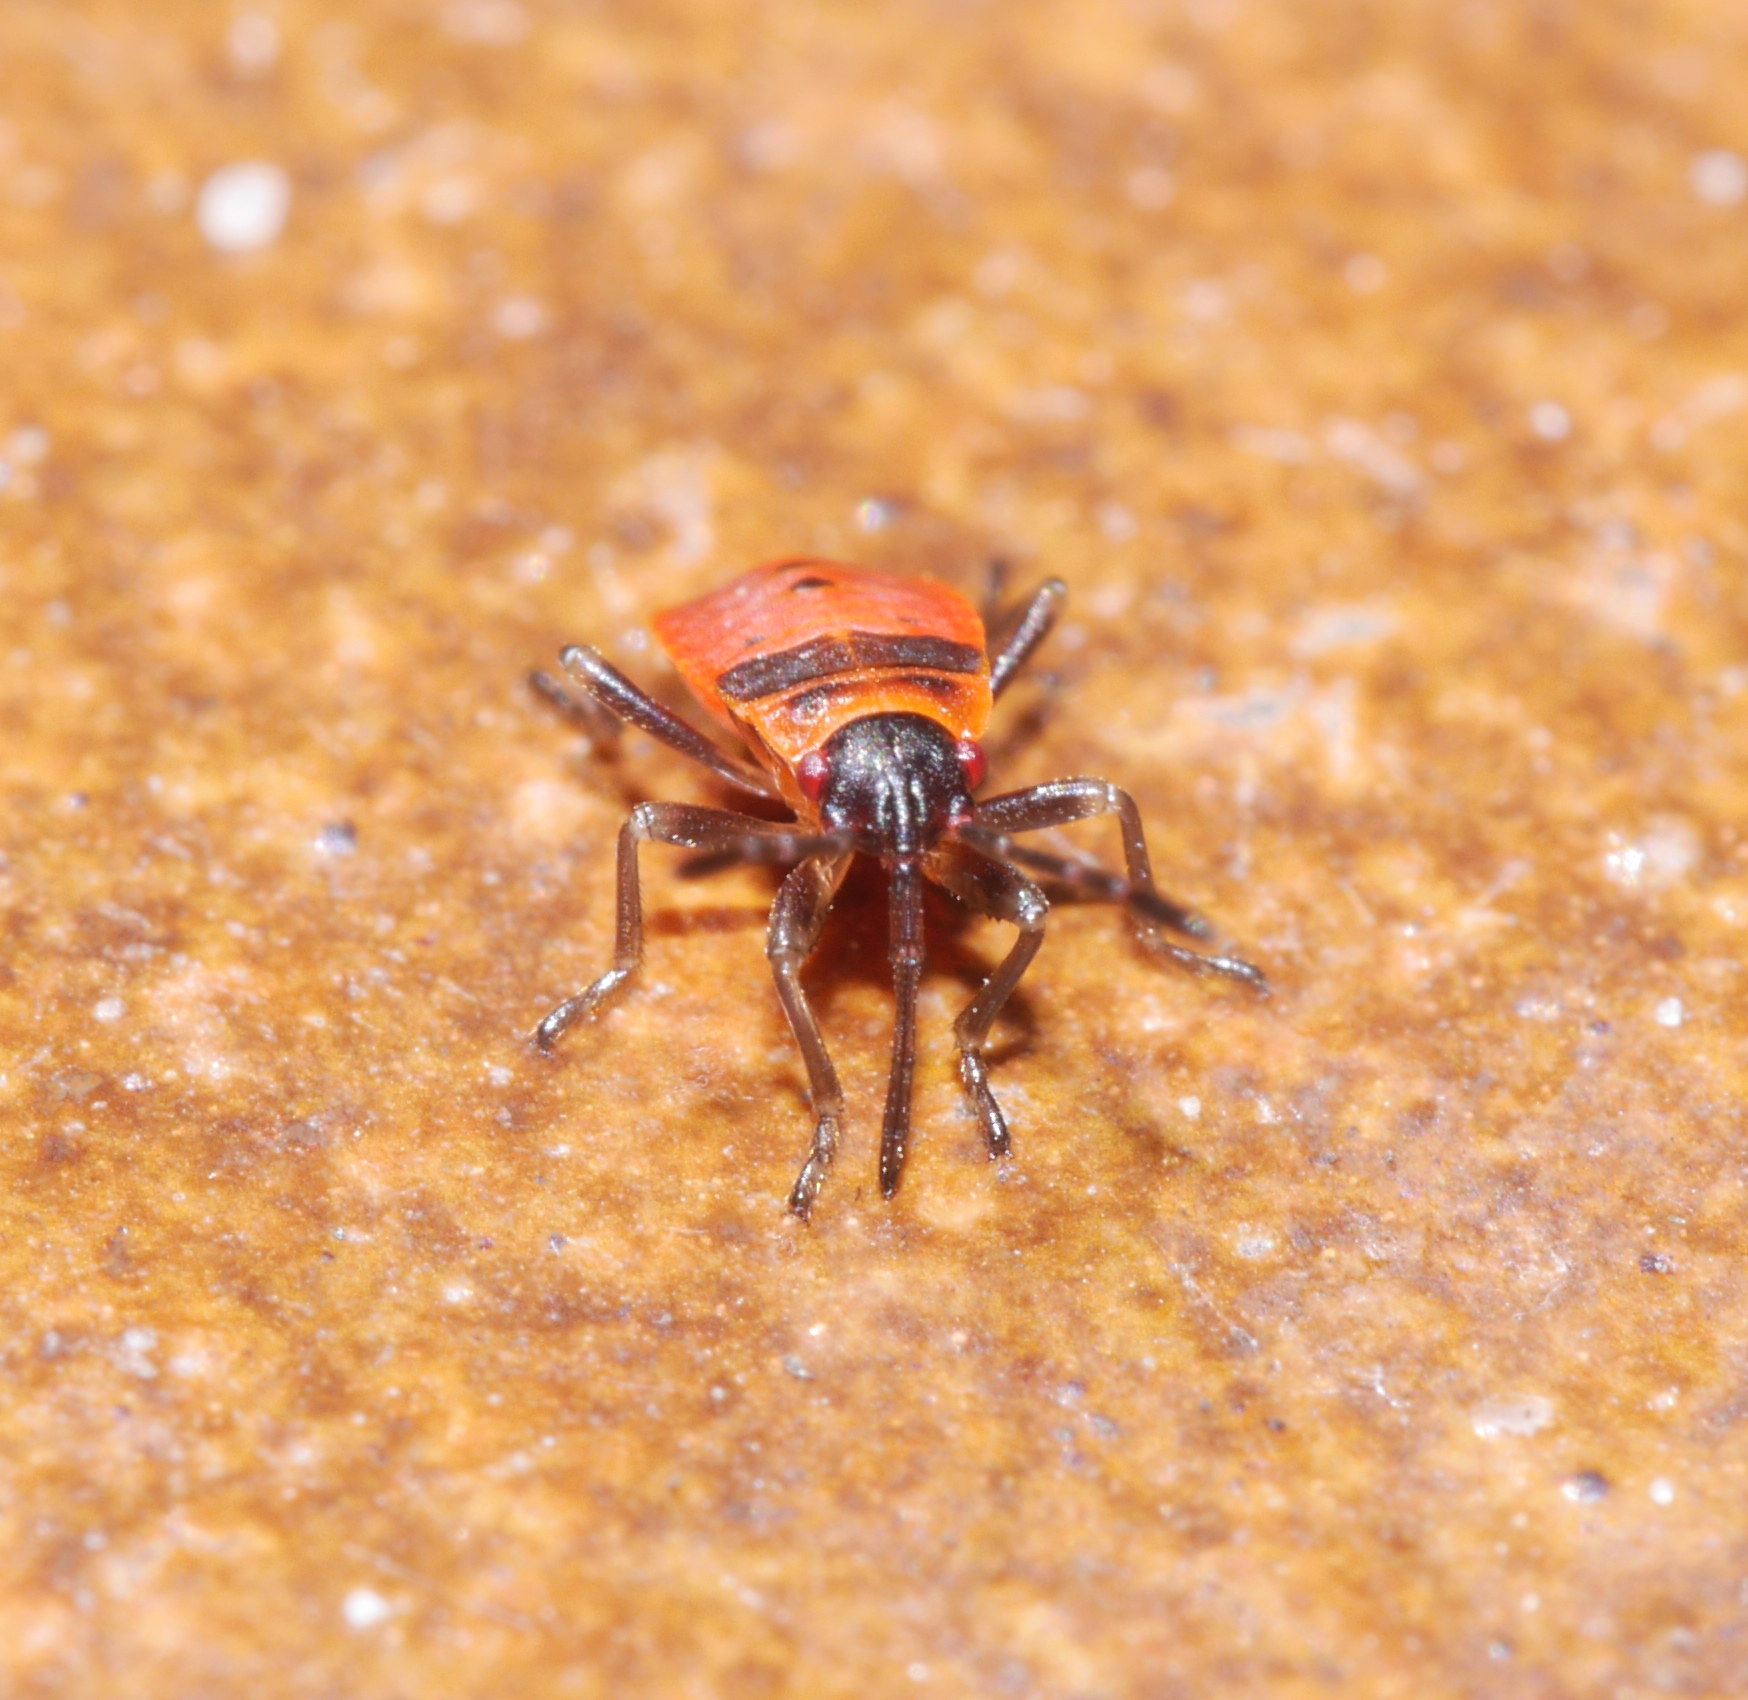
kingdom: Animalia
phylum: Arthropoda
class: Insecta
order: Hemiptera
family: Pyrrhocoridae
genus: Pyrrhocoris
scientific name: Pyrrhocoris apterus
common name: Firebug
